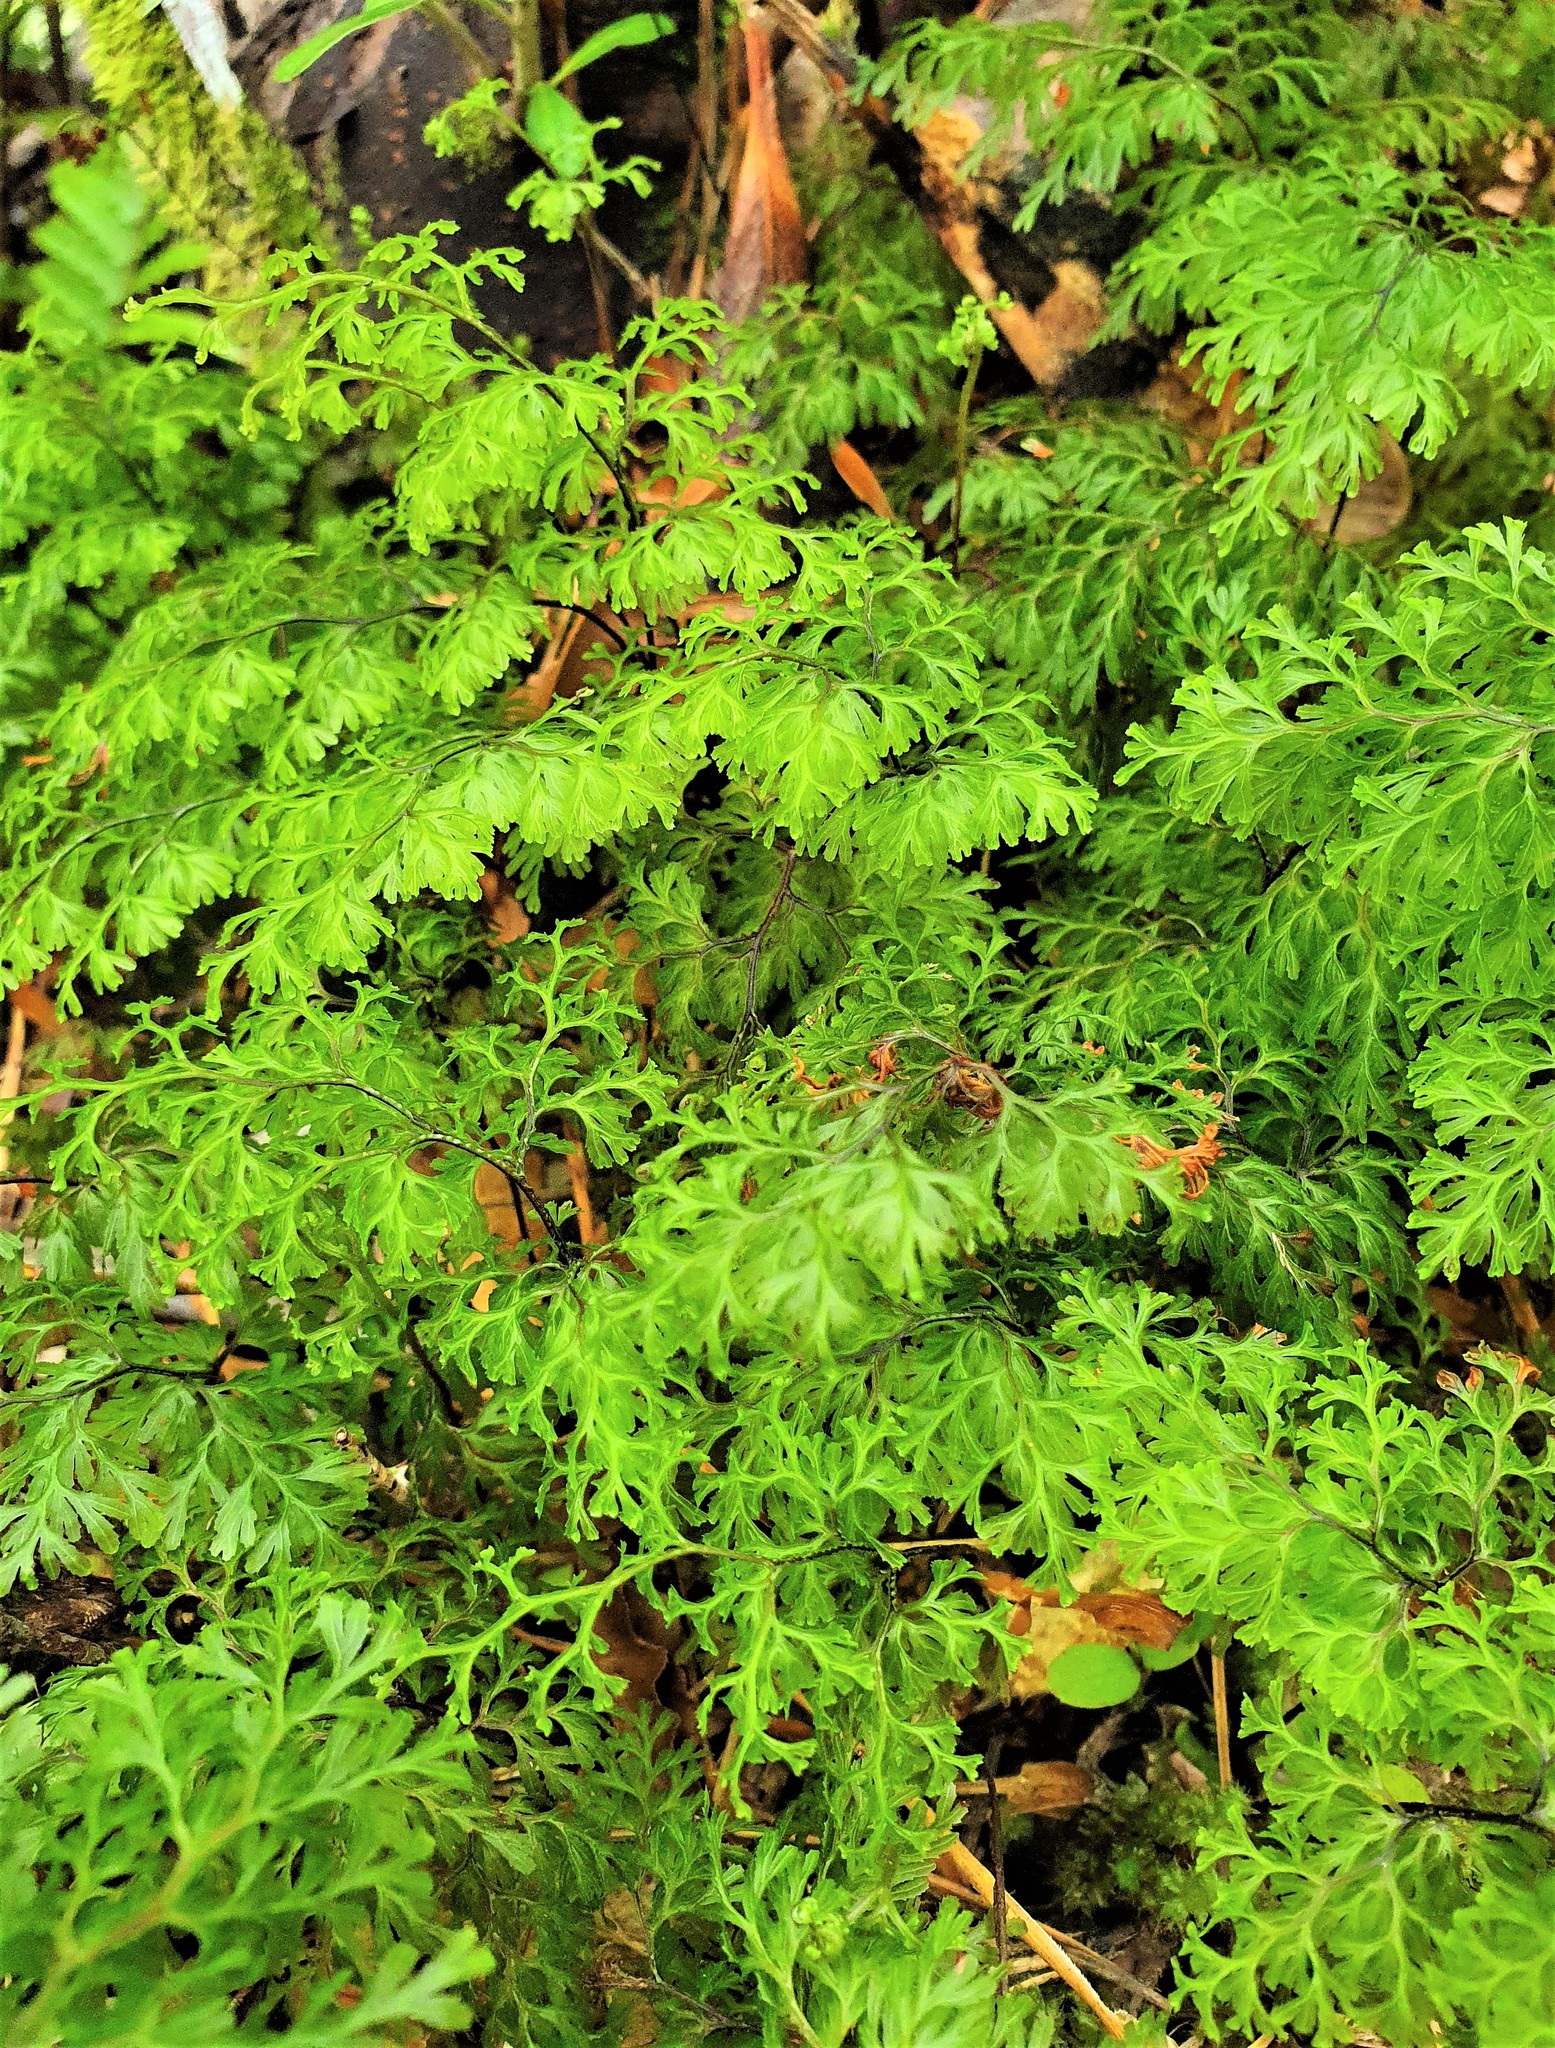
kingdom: Plantae
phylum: Tracheophyta
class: Polypodiopsida
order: Hymenophyllales
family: Hymenophyllaceae
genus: Hymenophyllum
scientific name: Hymenophyllum multifidum
